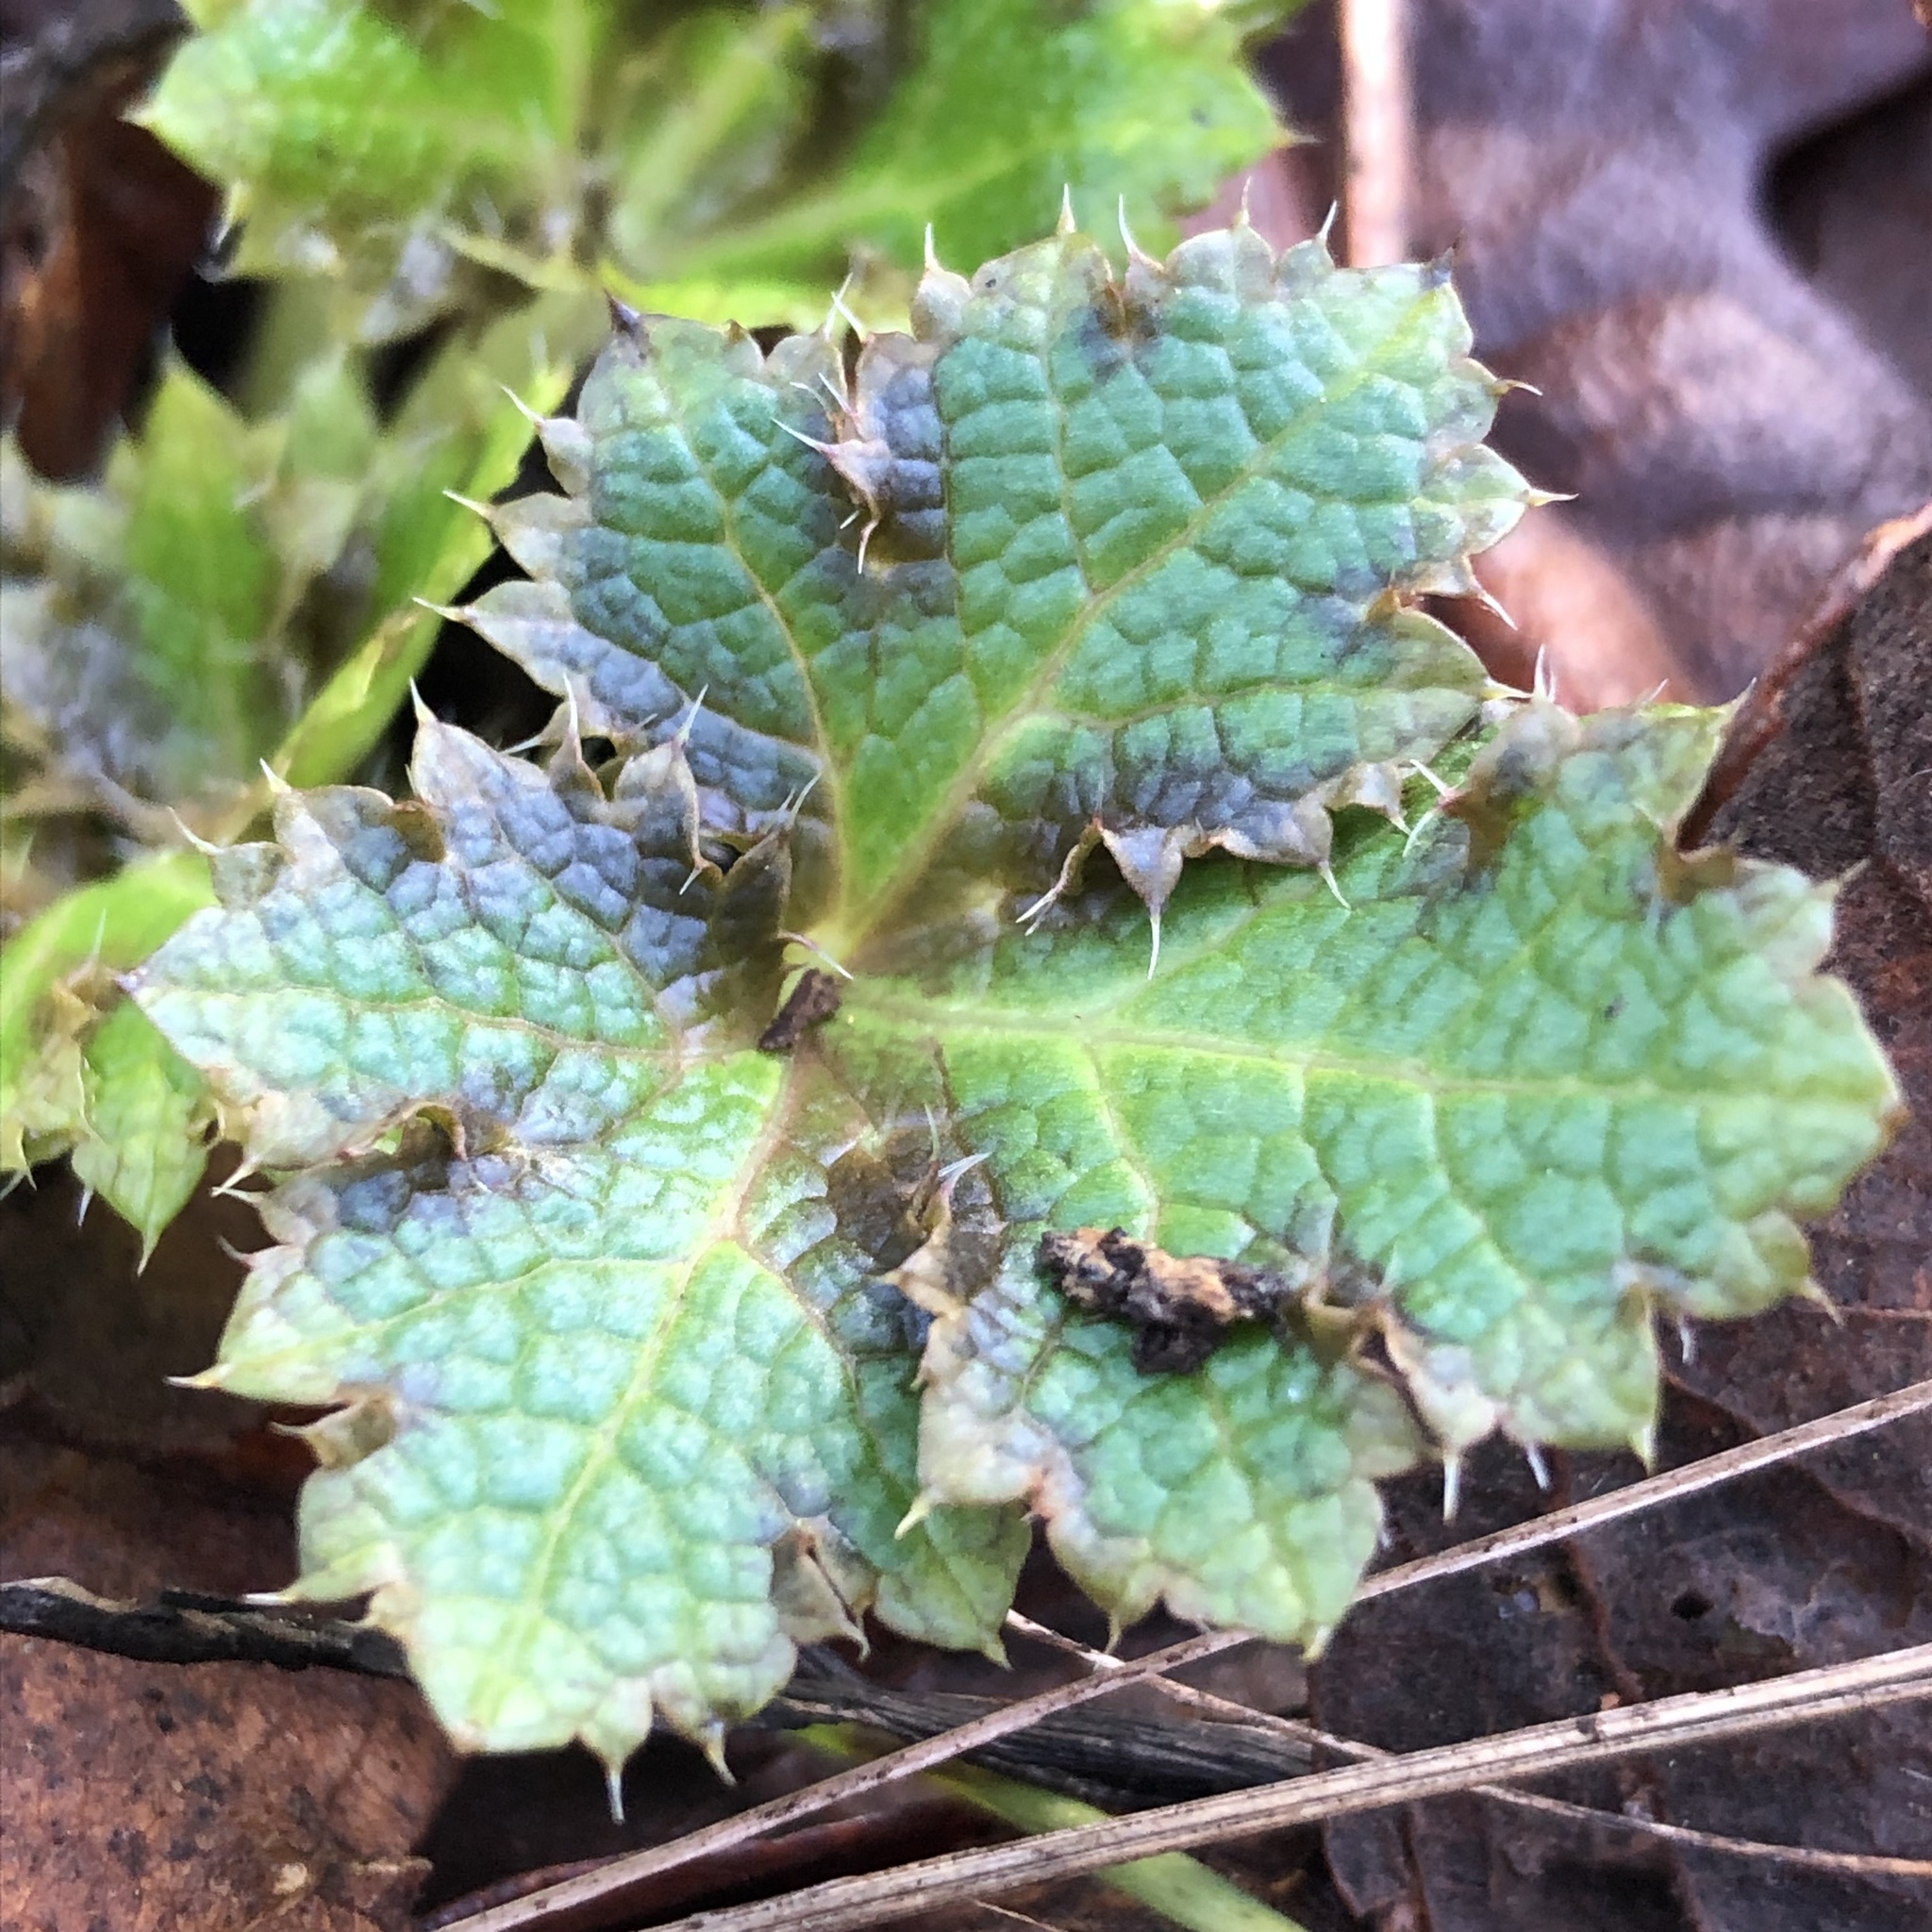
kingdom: Plantae
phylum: Tracheophyta
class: Magnoliopsida
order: Apiales
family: Apiaceae
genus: Sanicula
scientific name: Sanicula crassicaulis
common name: Western snakeroot
